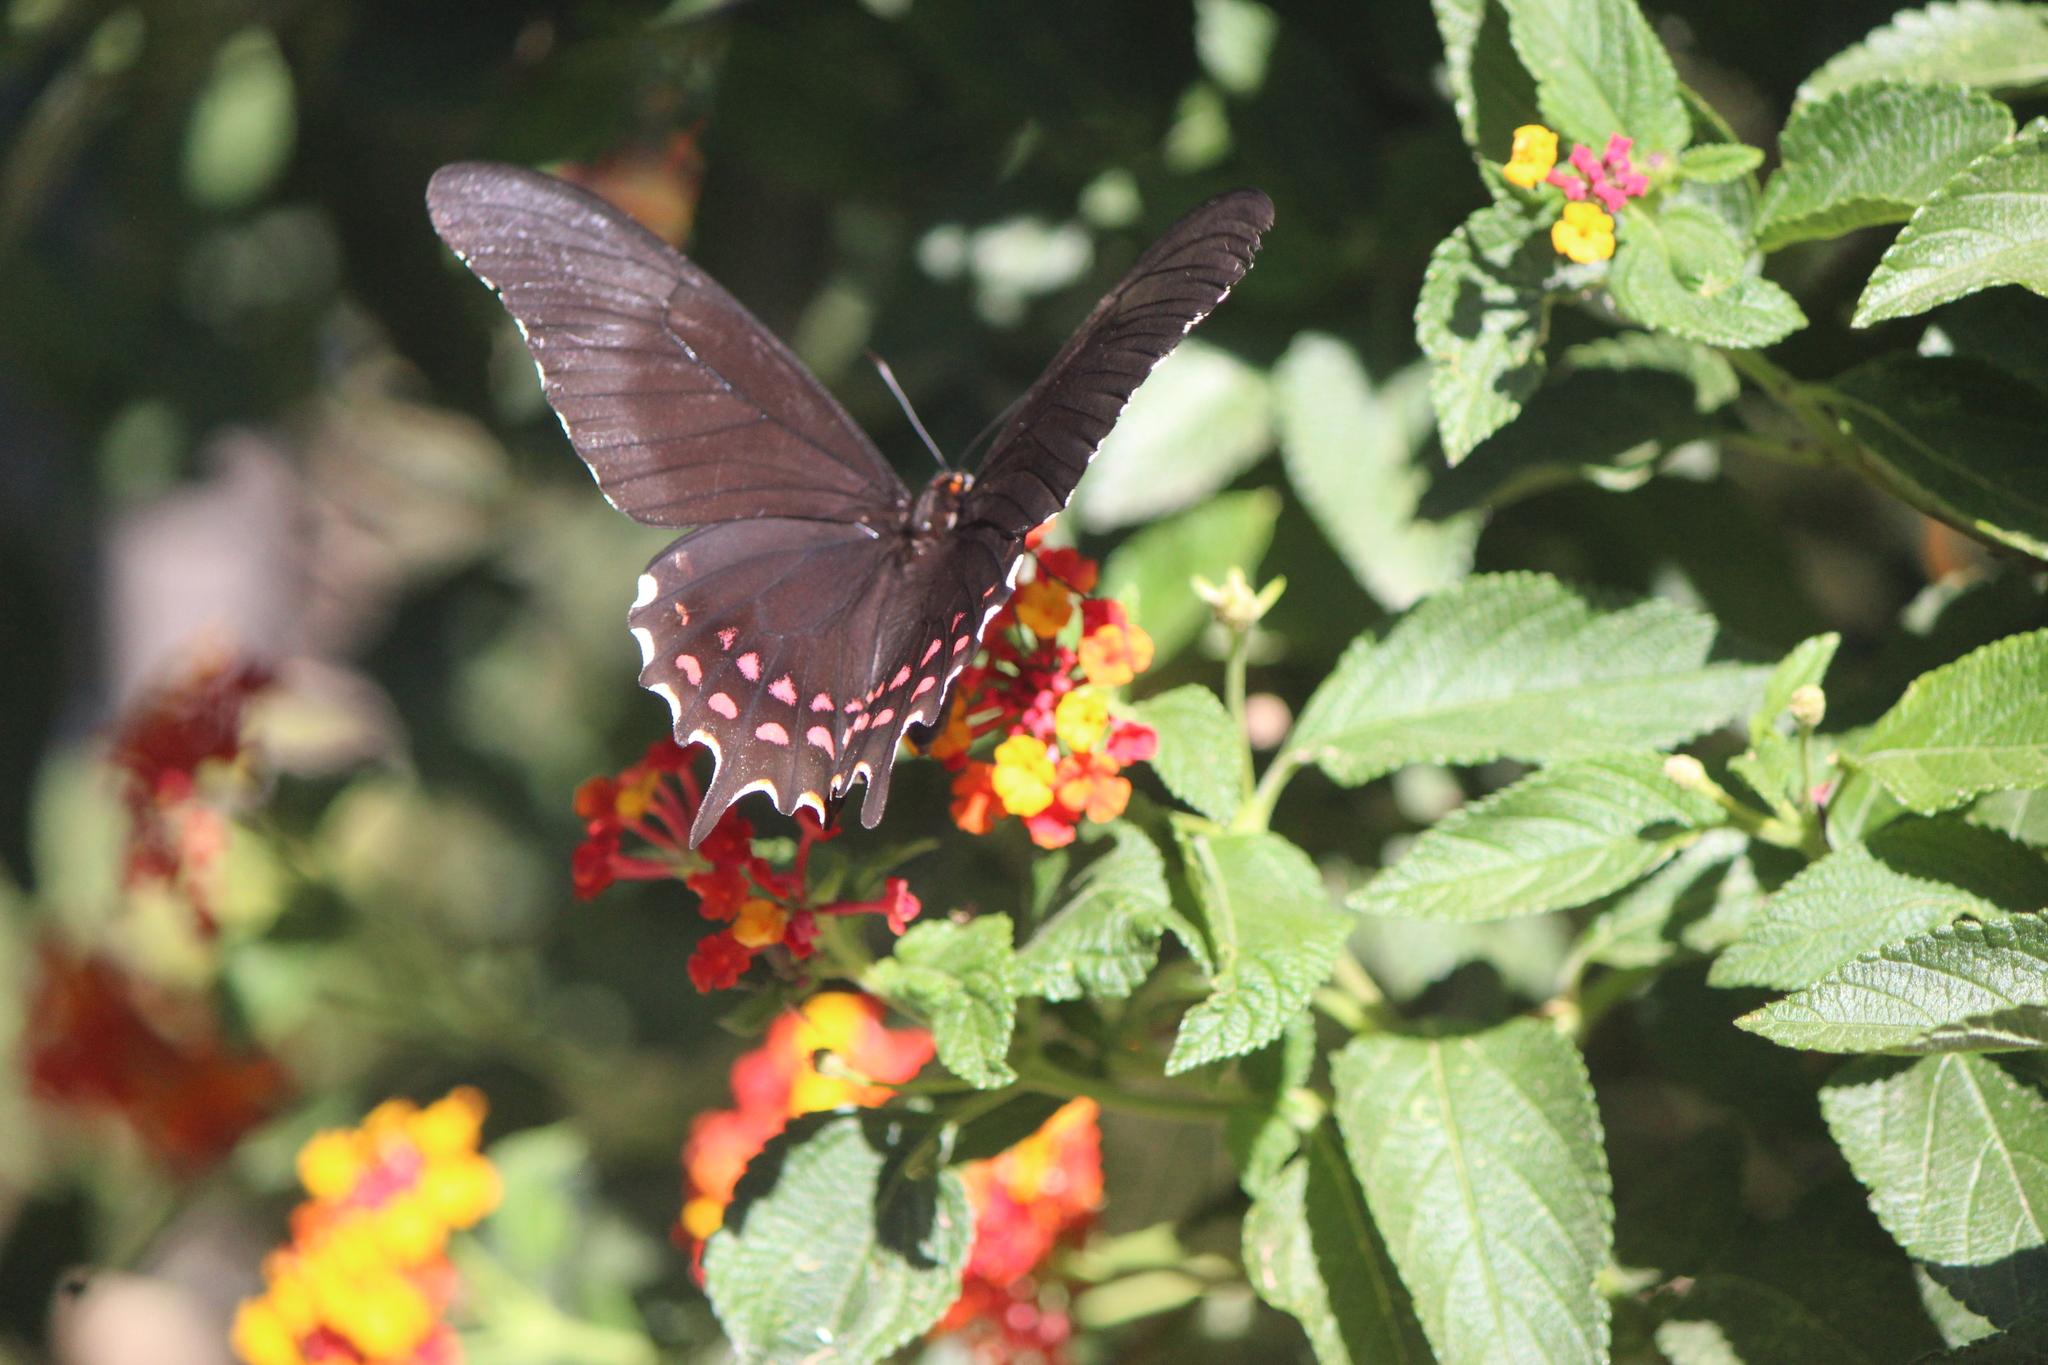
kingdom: Animalia
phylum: Arthropoda
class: Insecta
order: Lepidoptera
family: Papilionidae
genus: Heraclides
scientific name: Heraclides rogeri
